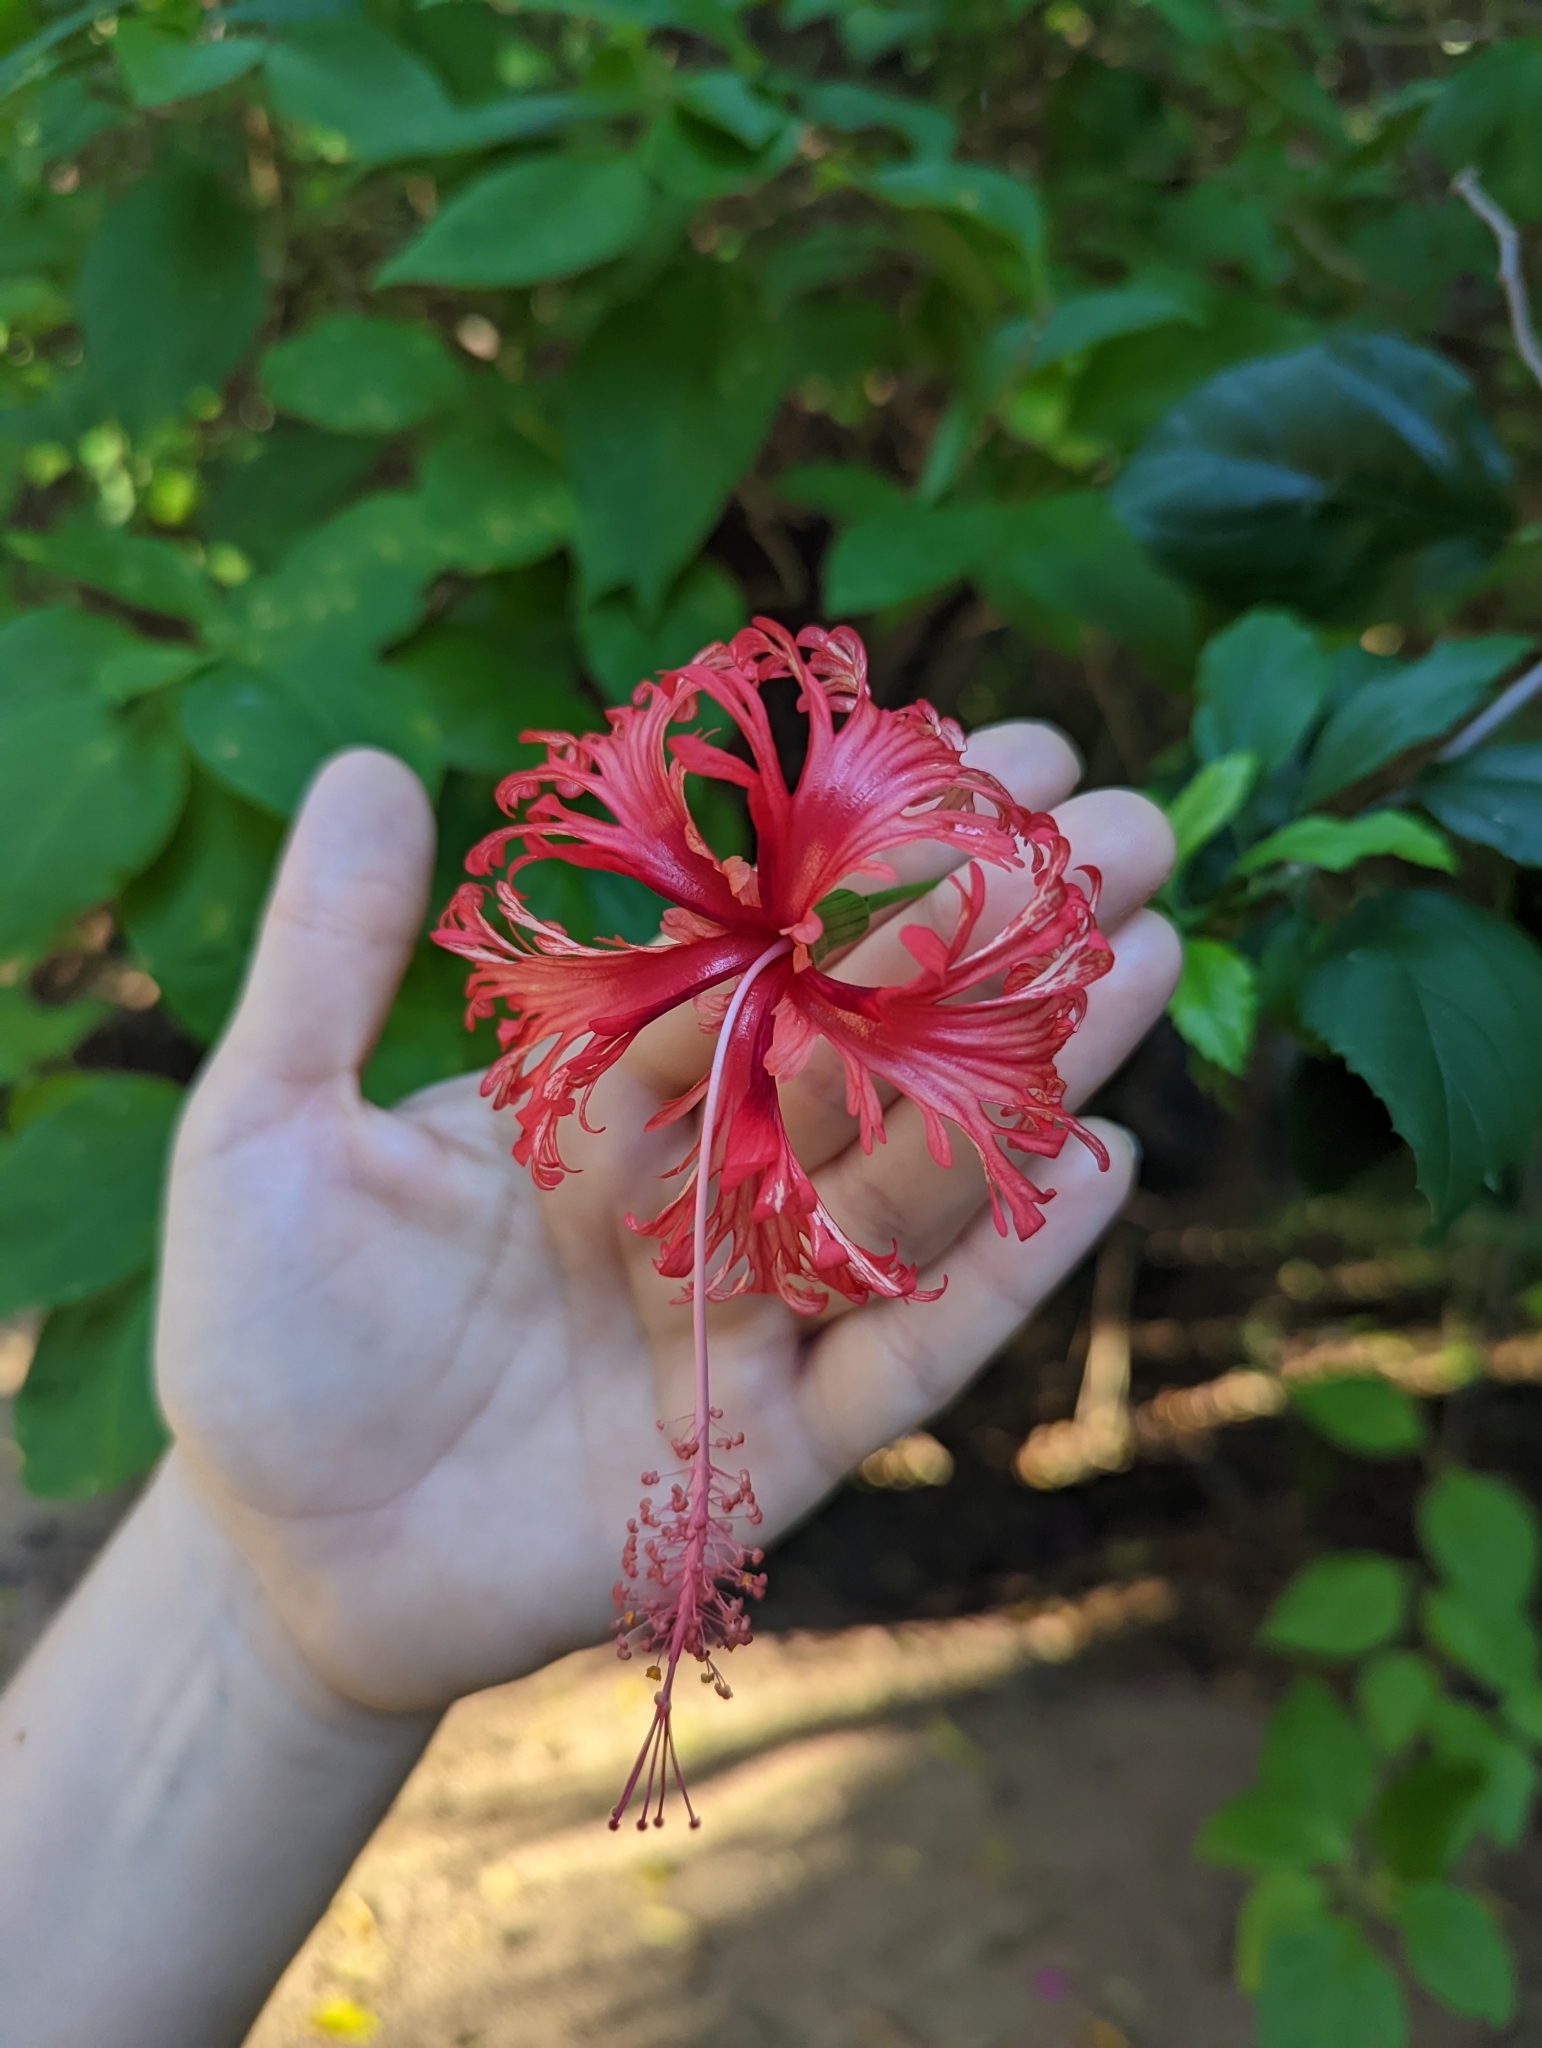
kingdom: Plantae
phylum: Tracheophyta
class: Magnoliopsida
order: Malvales
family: Malvaceae
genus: Hibiscus
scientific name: Hibiscus schizopetalus
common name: Fringed rosemallow
